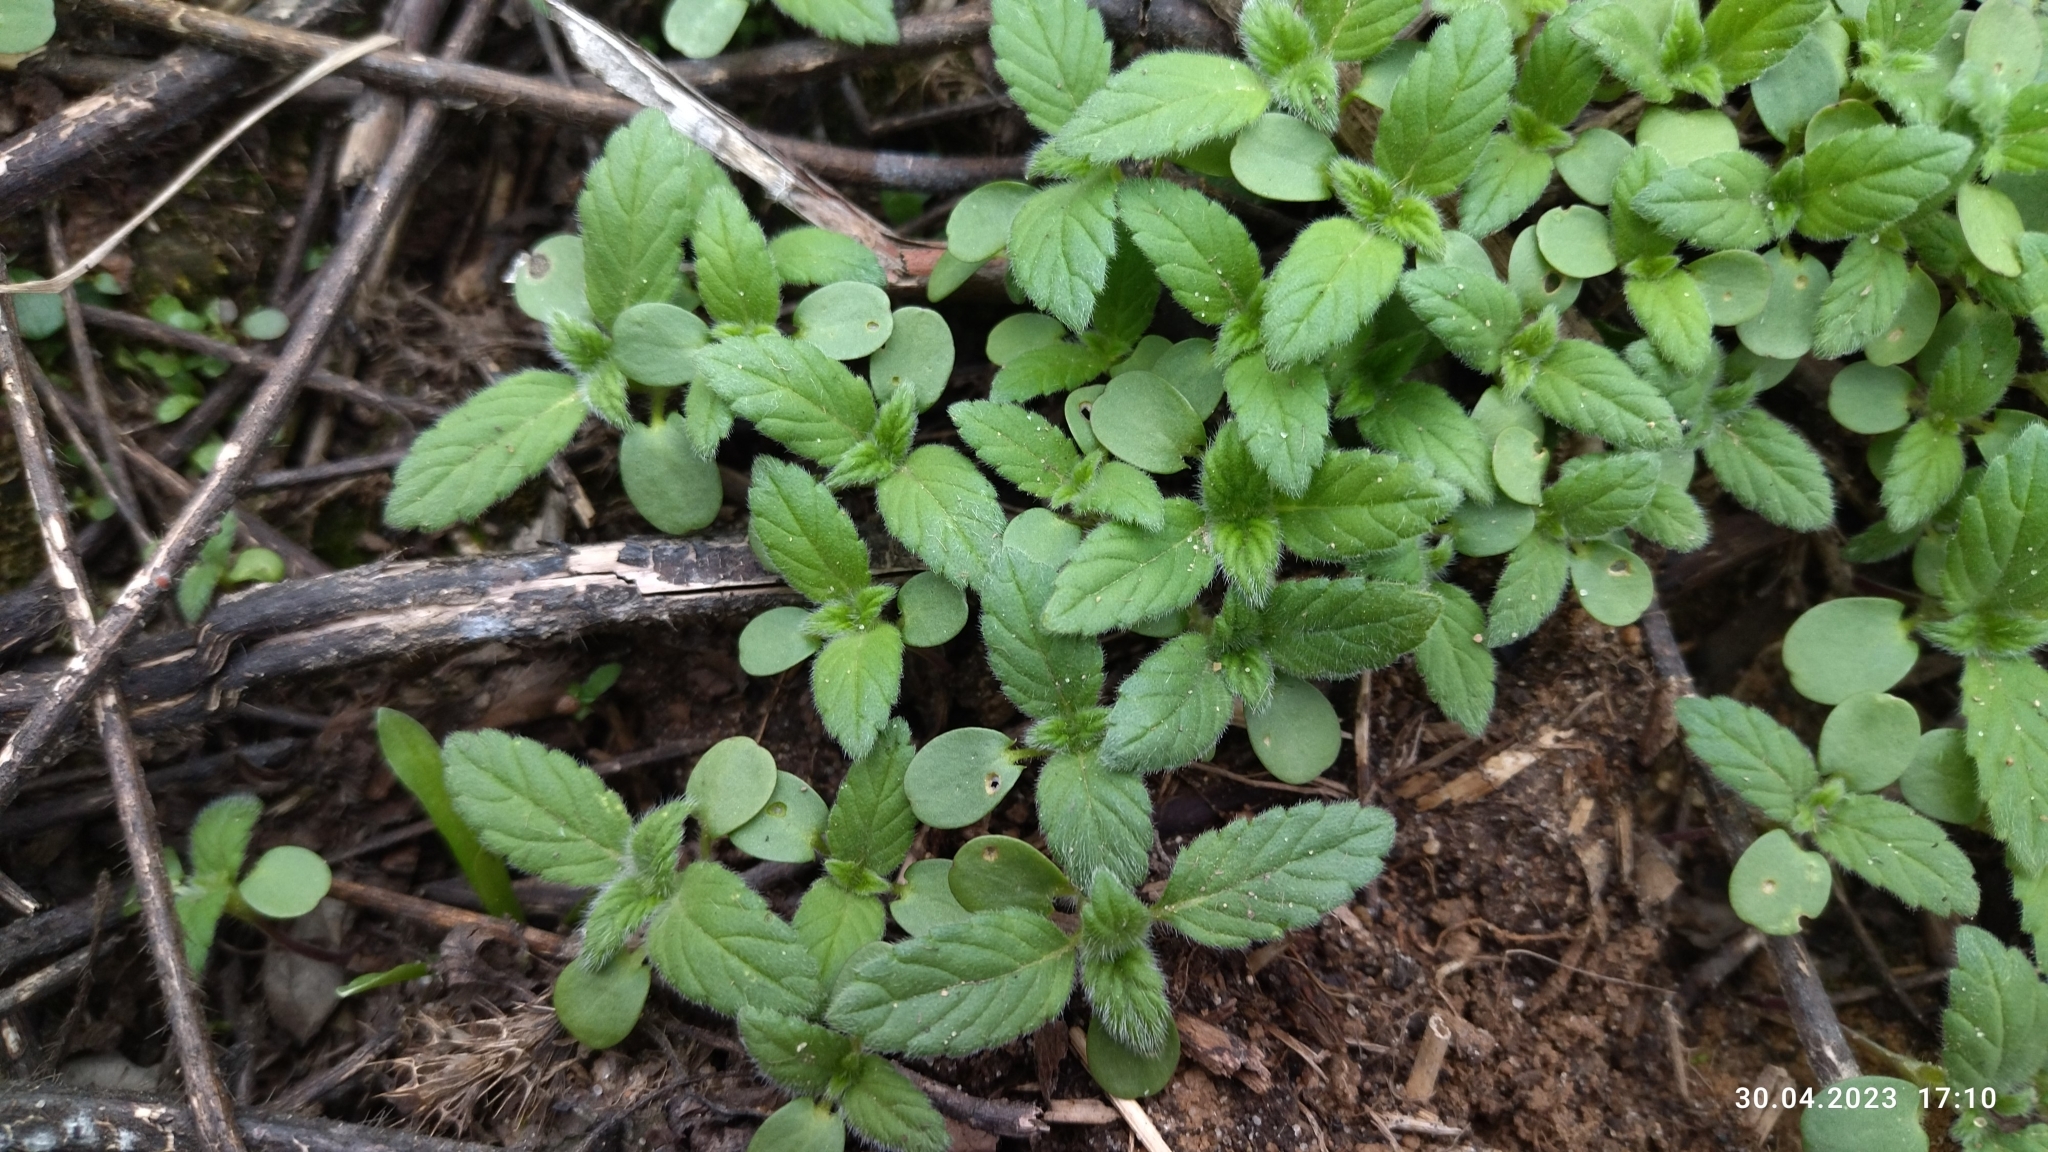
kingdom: Plantae
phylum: Tracheophyta
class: Magnoliopsida
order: Lamiales
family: Lamiaceae
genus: Galeopsis
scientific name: Galeopsis bifida
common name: Bifid hemp-nettle
